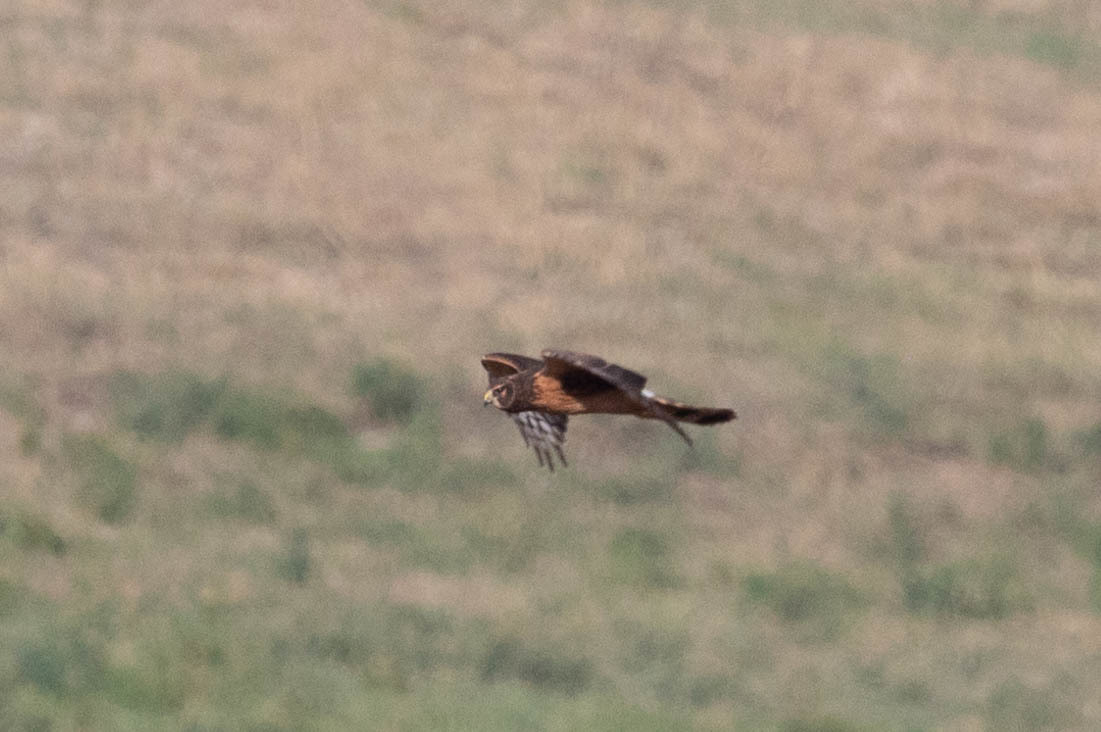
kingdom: Animalia
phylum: Chordata
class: Aves
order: Accipitriformes
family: Accipitridae
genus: Circus
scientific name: Circus cyaneus
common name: Hen harrier
